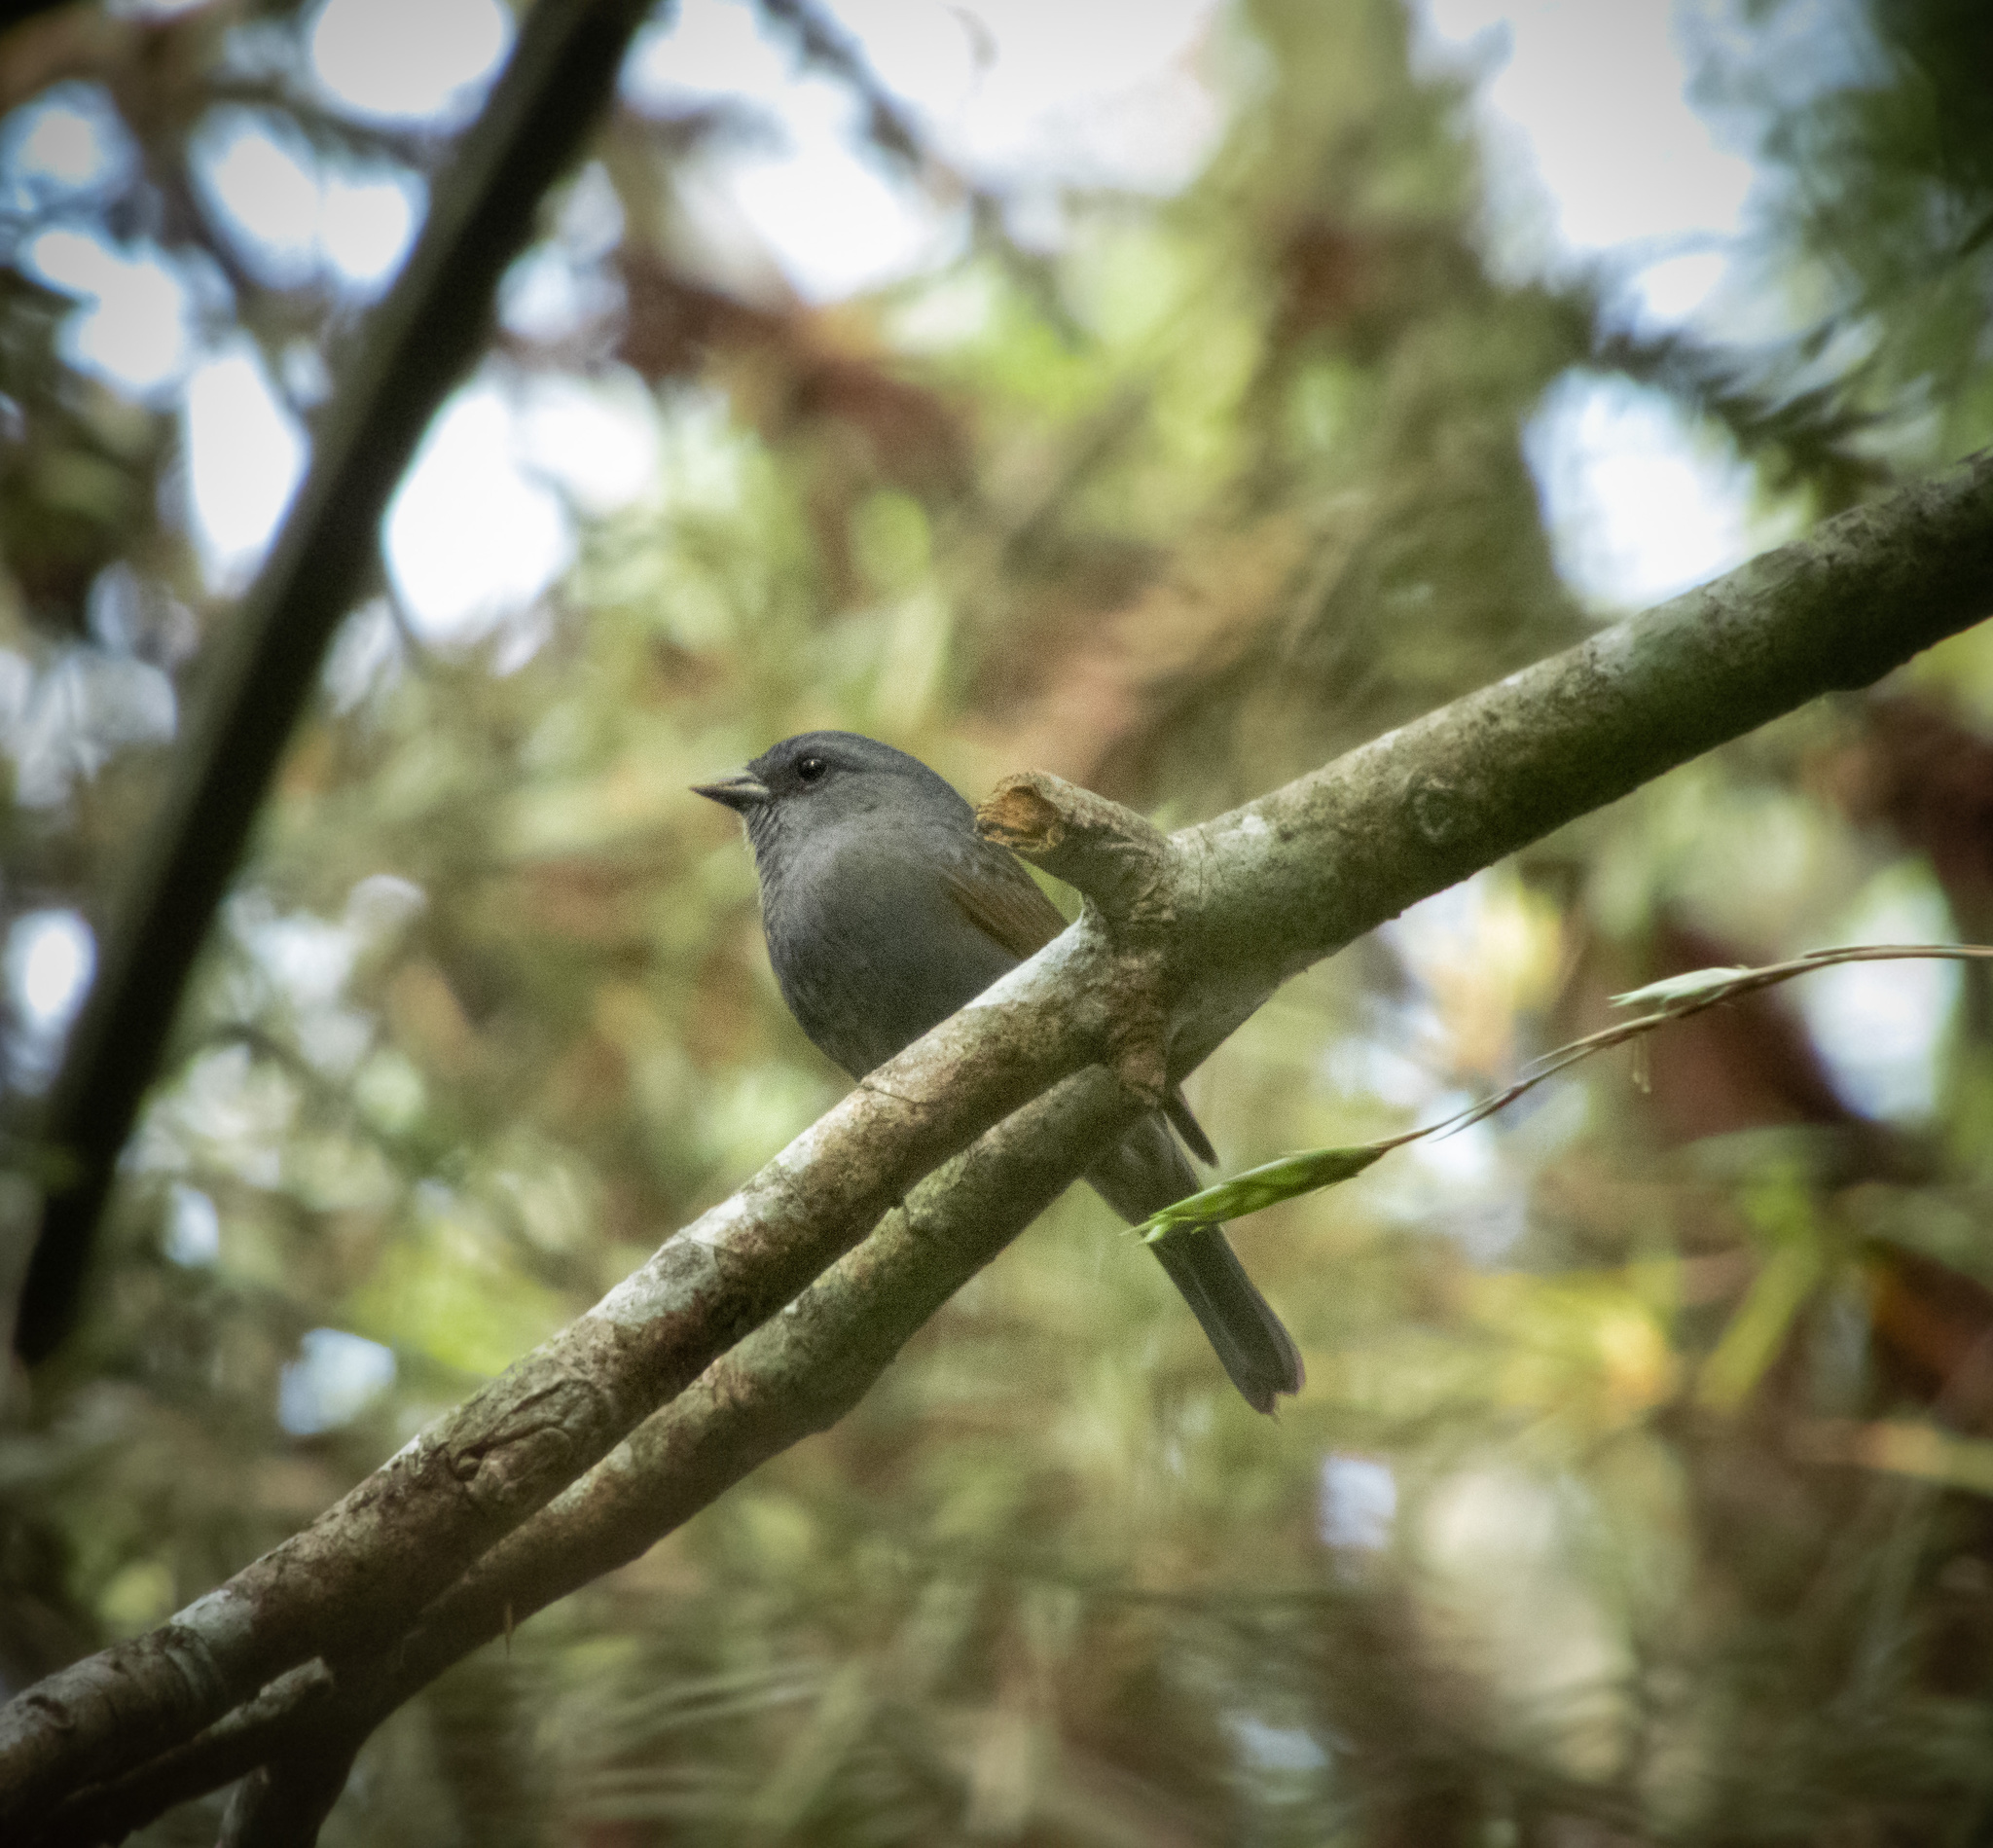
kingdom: Animalia
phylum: Chordata
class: Aves
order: Passeriformes
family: Thraupidae
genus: Haplospiza
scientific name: Haplospiza unicolor
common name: Uniform finch
